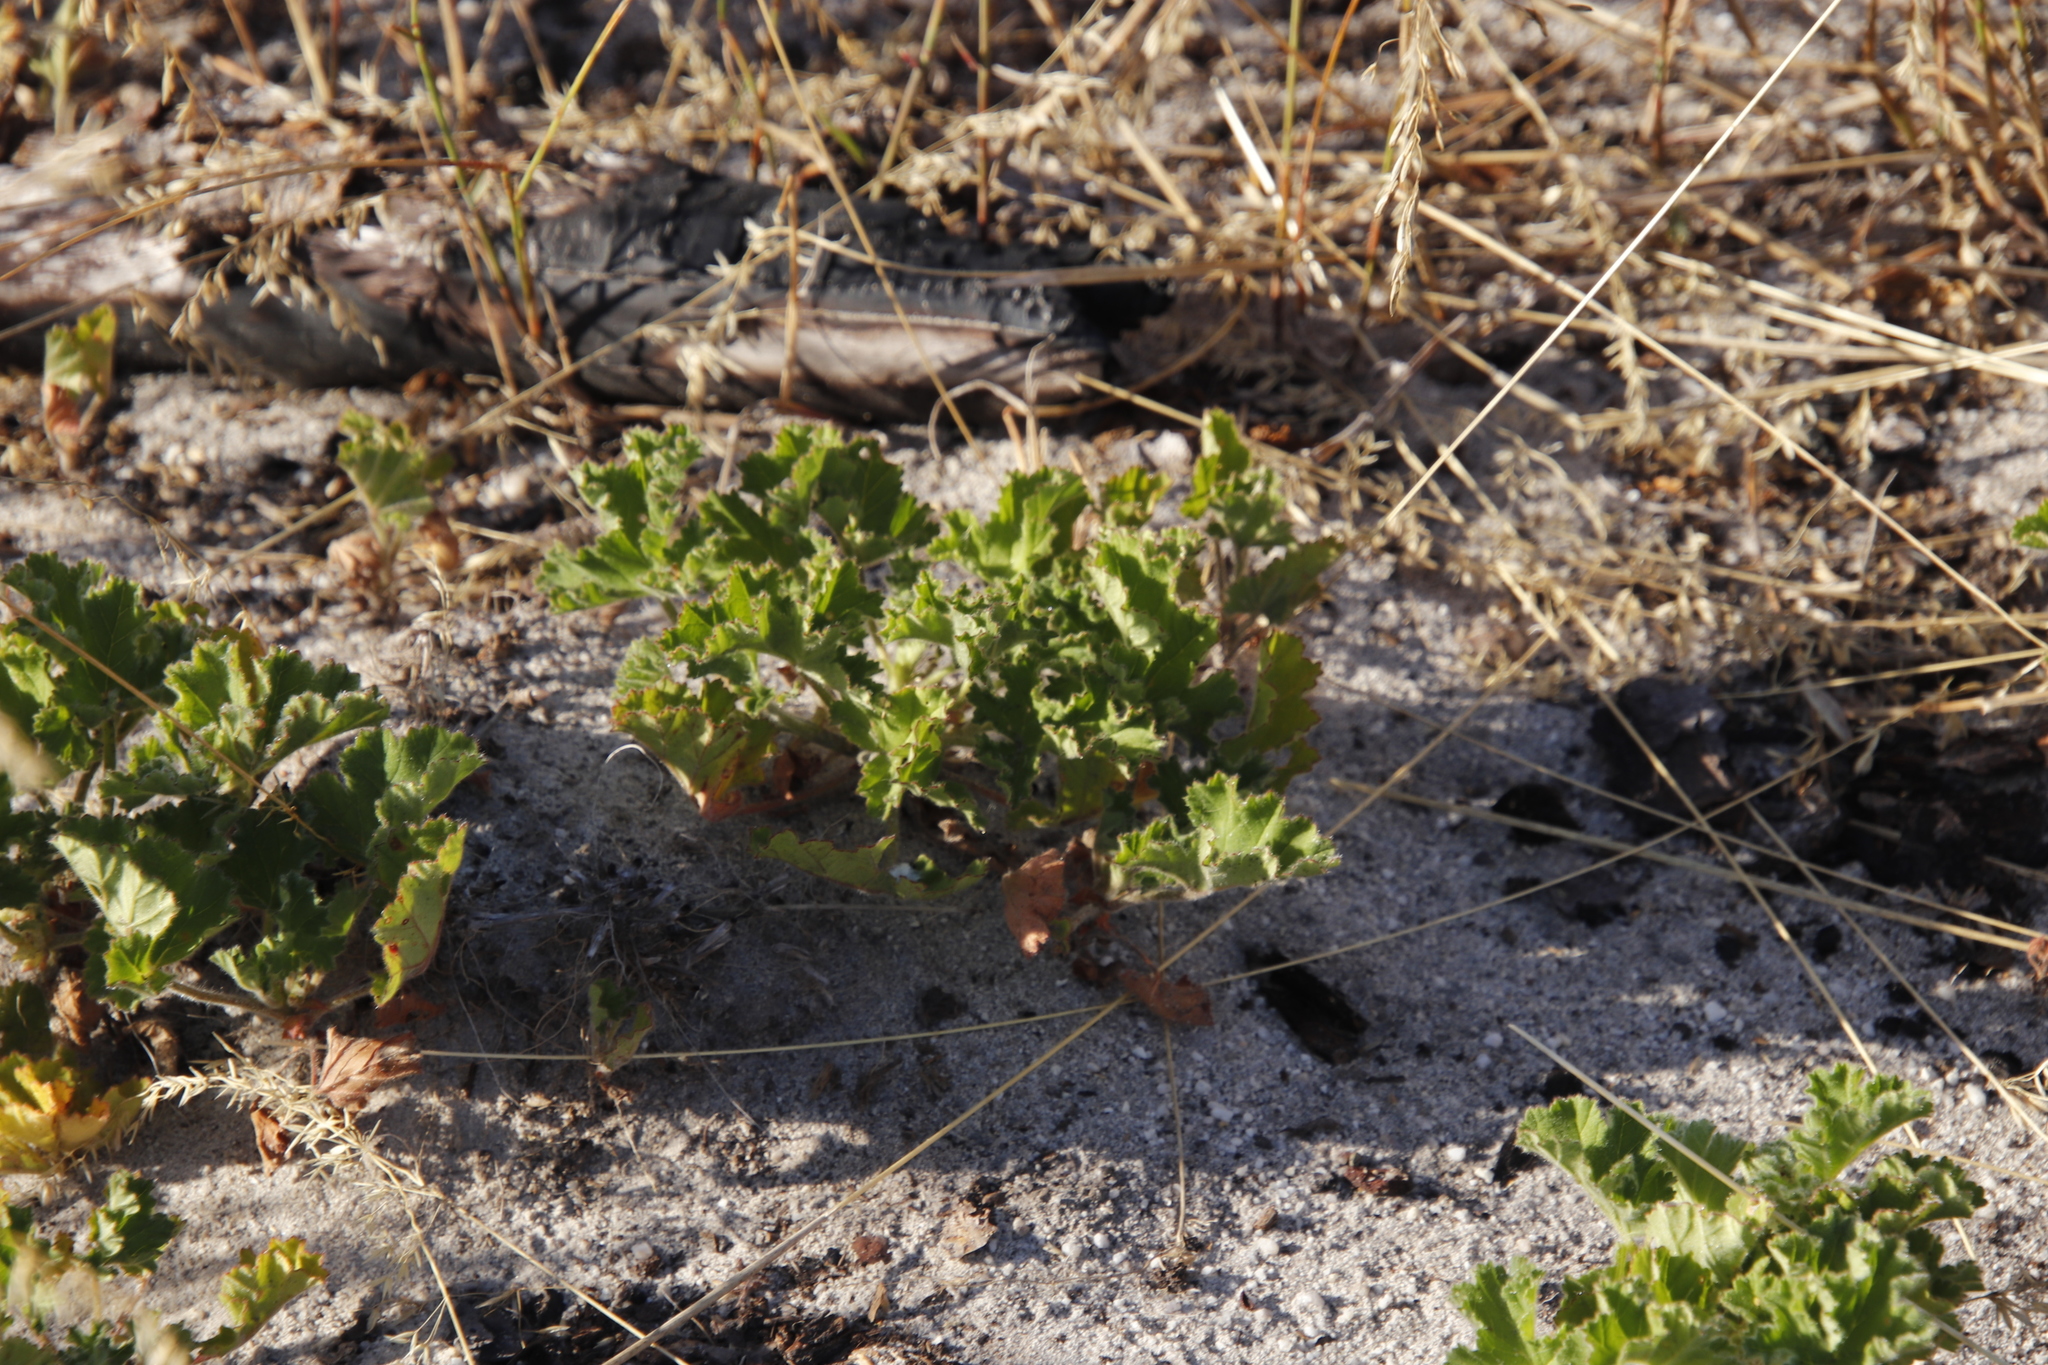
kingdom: Plantae
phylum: Tracheophyta
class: Magnoliopsida
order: Geraniales
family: Geraniaceae
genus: Pelargonium
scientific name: Pelargonium capitatum
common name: Rose scented geranium
